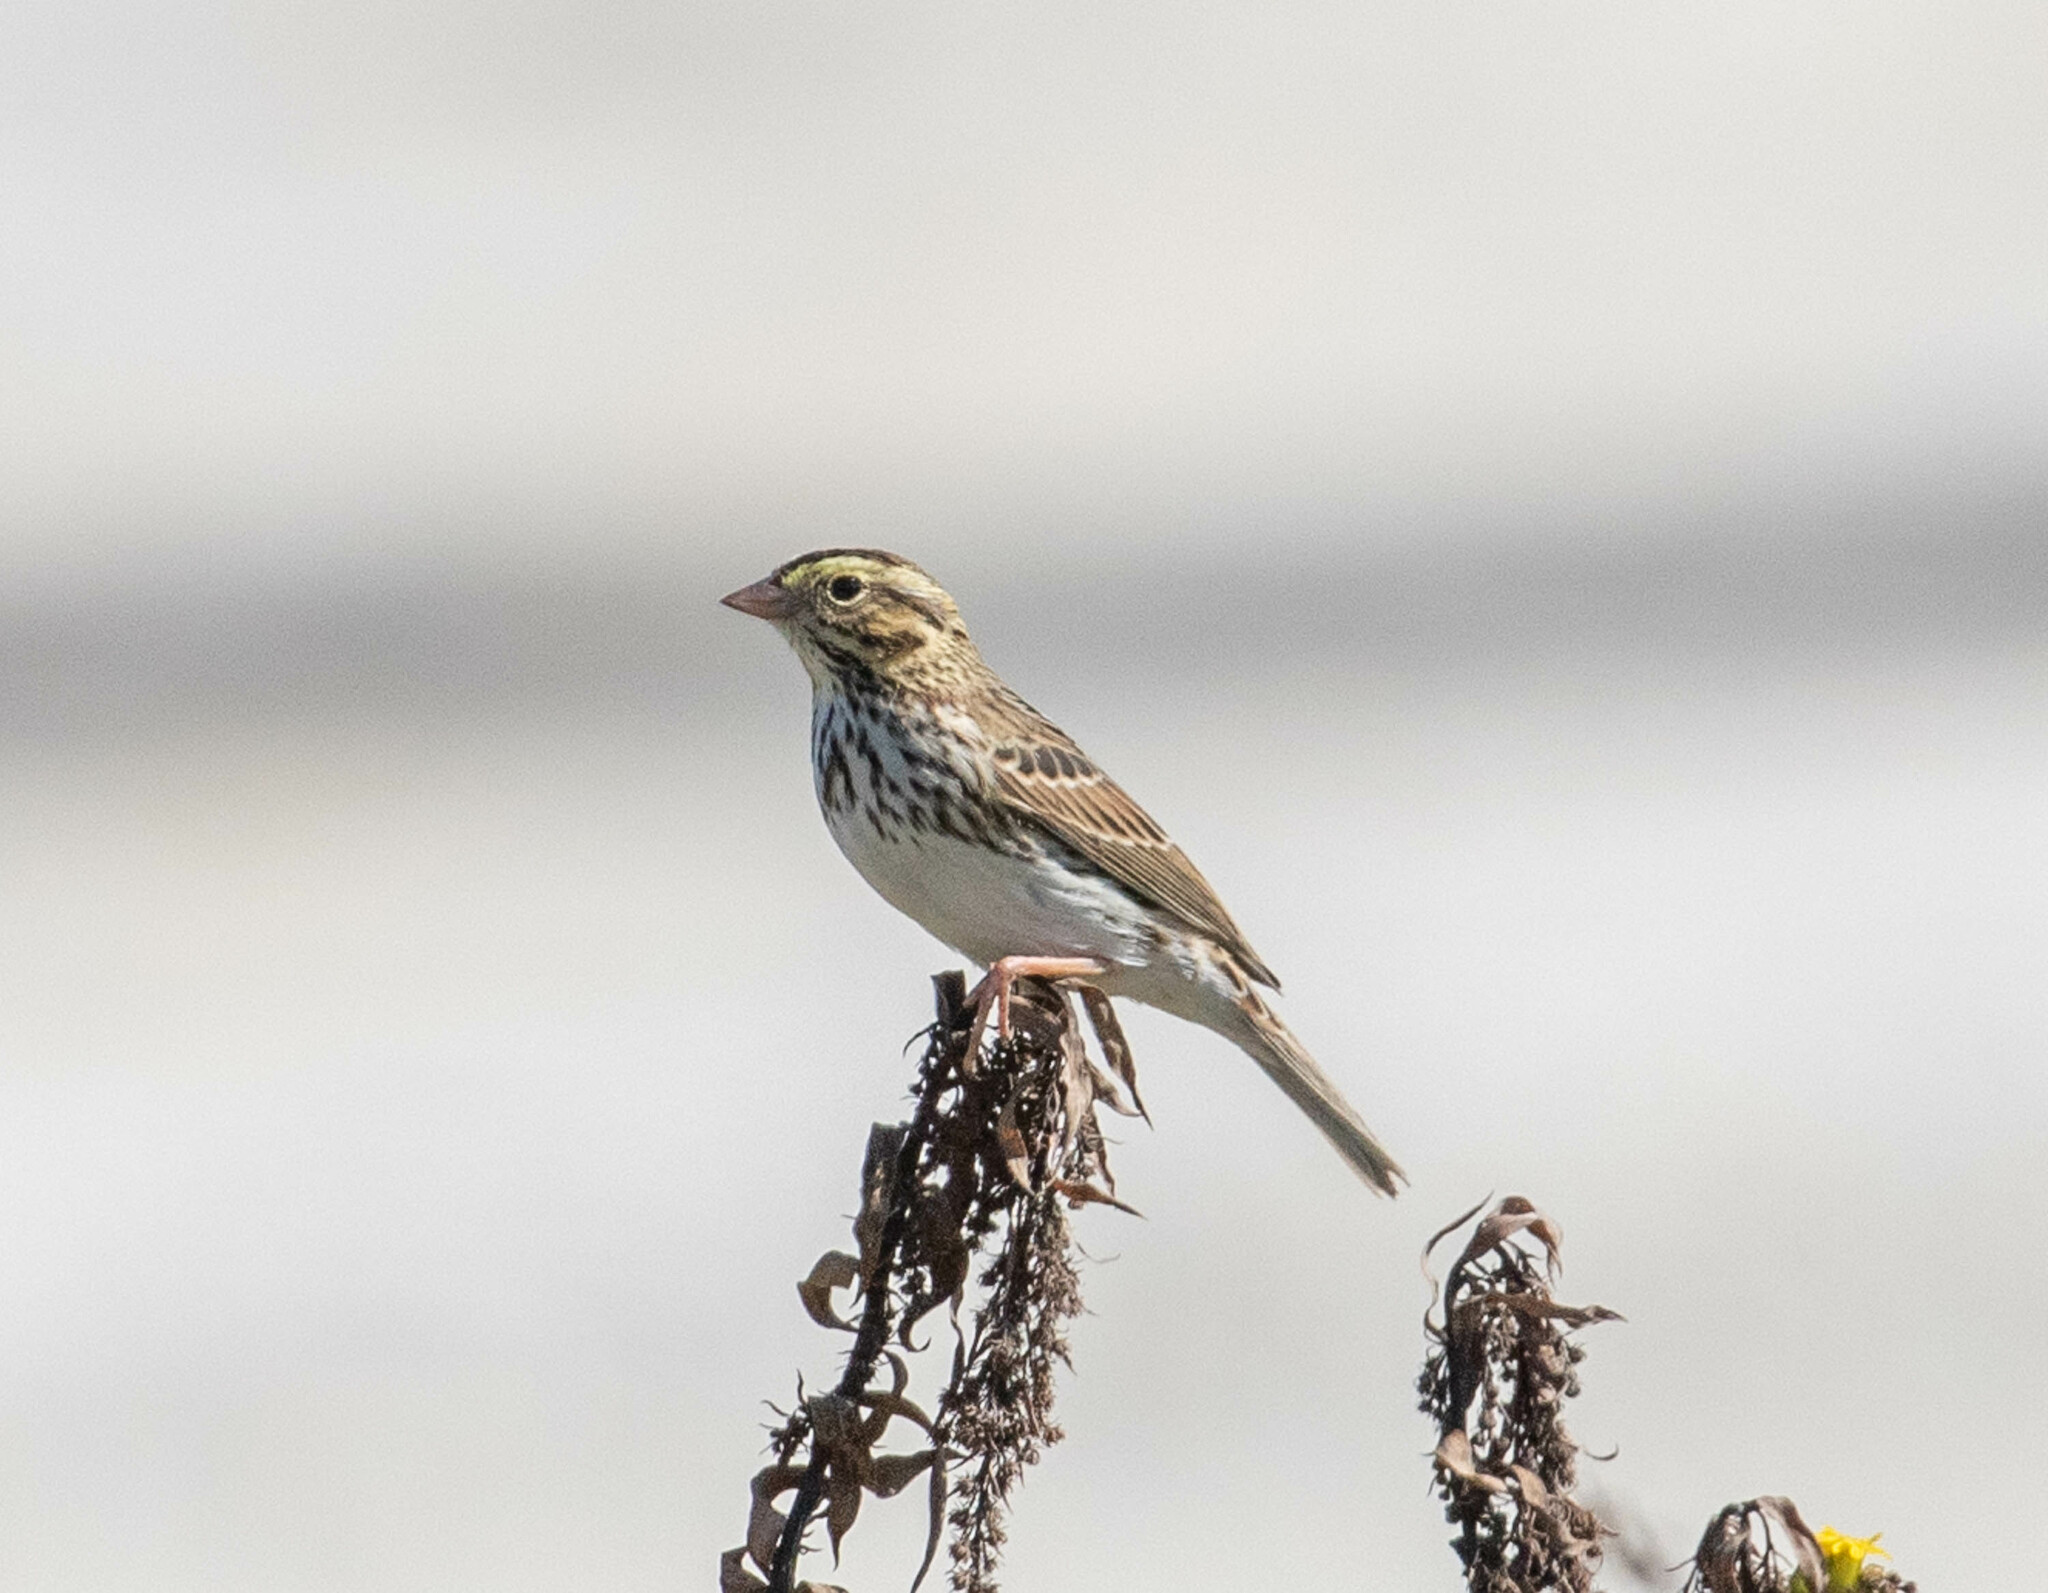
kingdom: Animalia
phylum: Chordata
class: Aves
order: Passeriformes
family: Passerellidae
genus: Passerculus
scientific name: Passerculus sandwichensis
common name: Savannah sparrow
